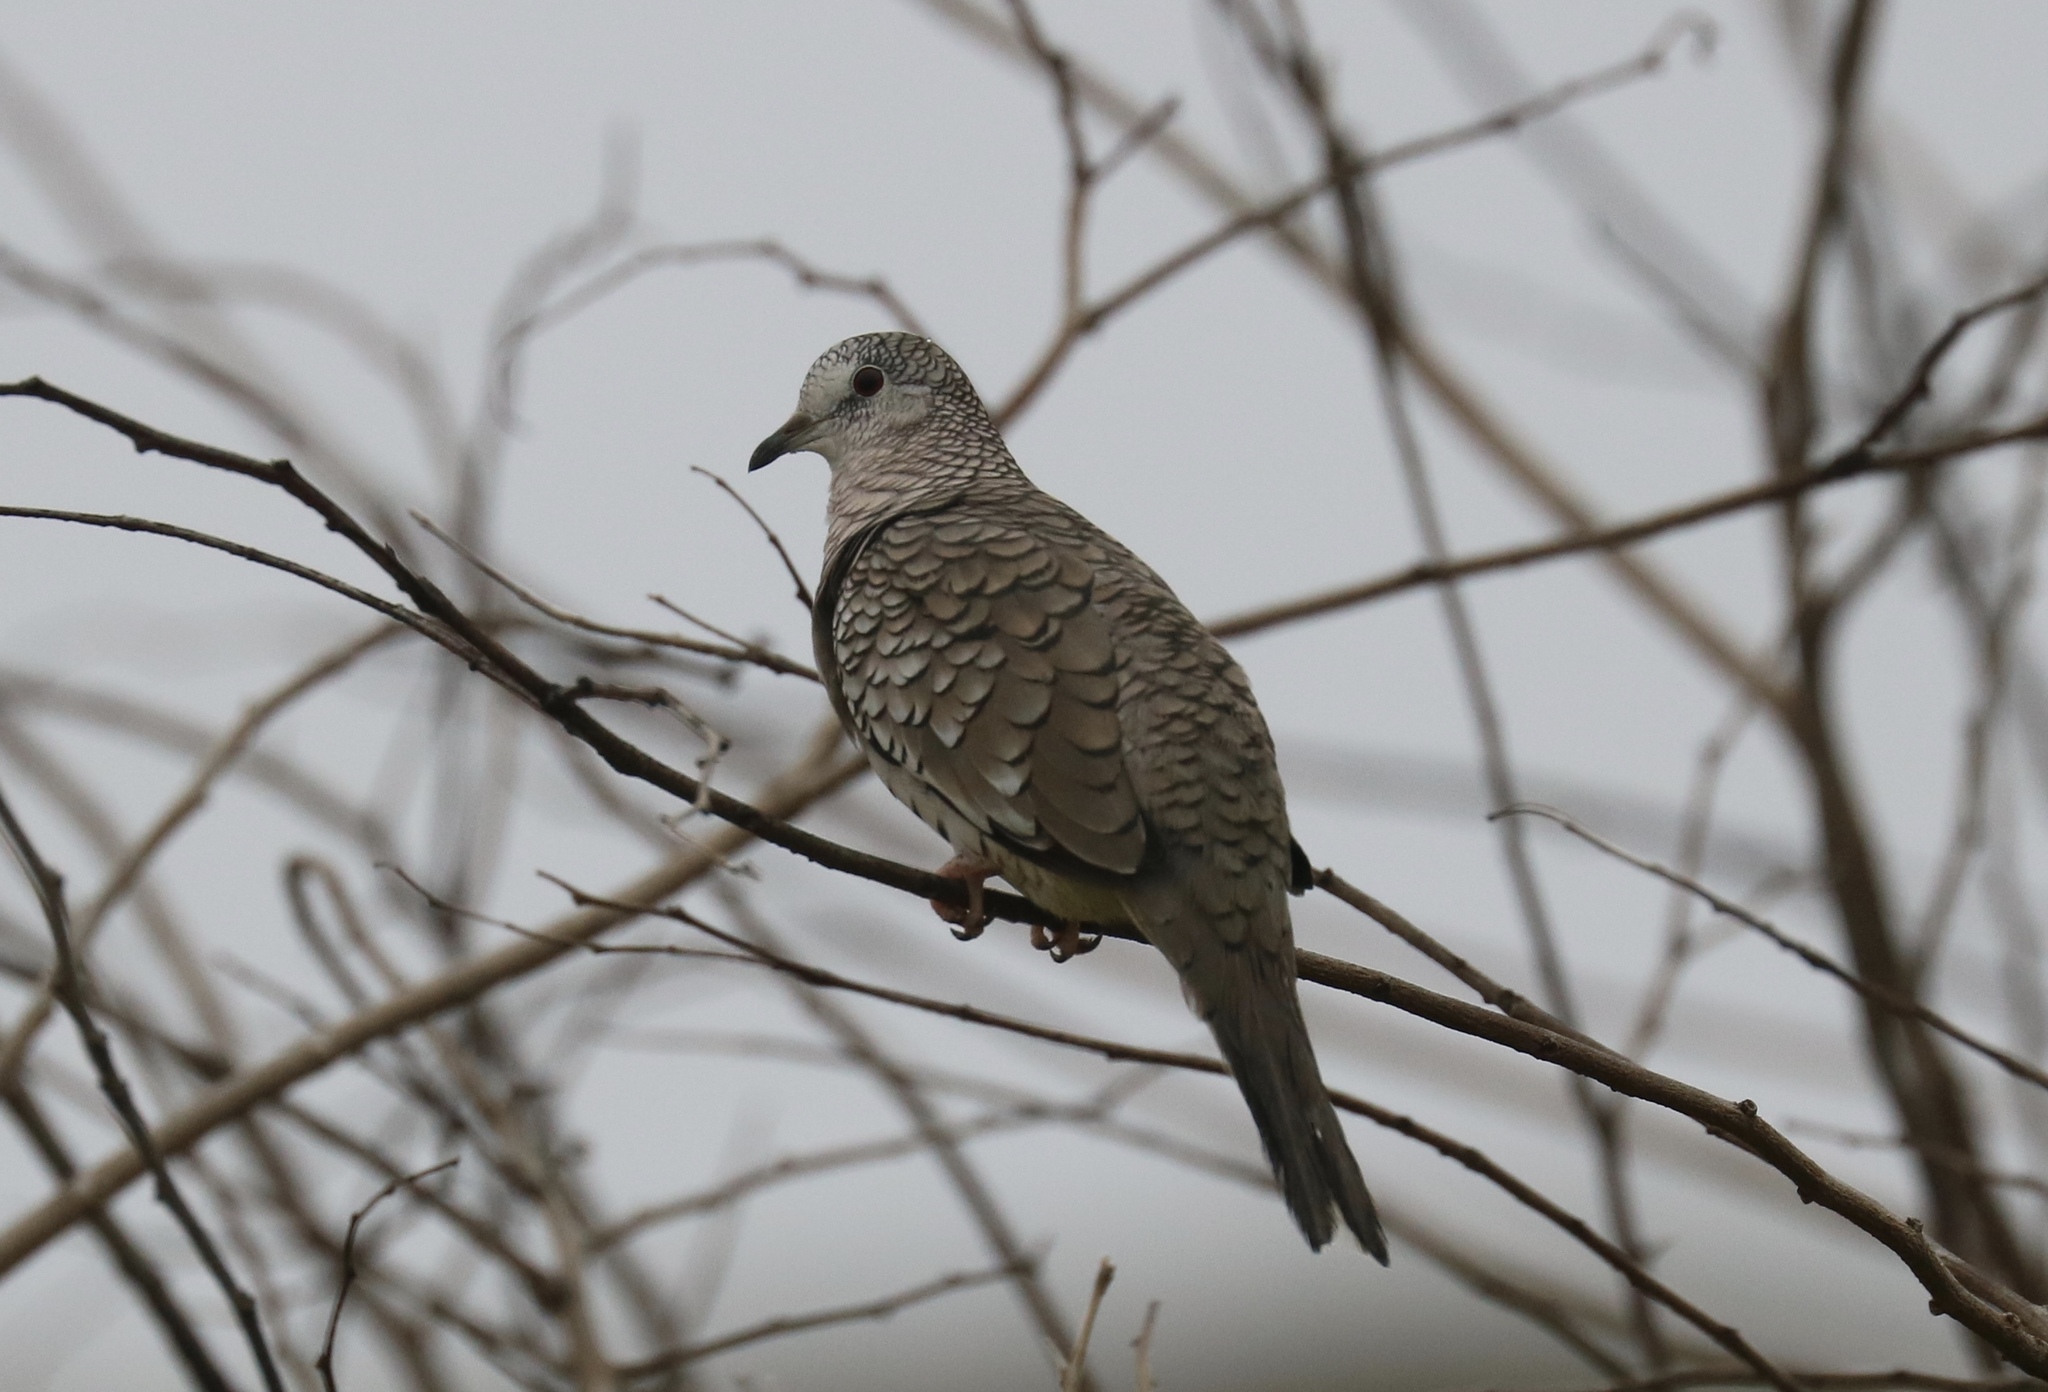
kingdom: Animalia
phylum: Chordata
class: Aves
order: Columbiformes
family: Columbidae
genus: Columbina
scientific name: Columbina squammata
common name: Scaled dove
